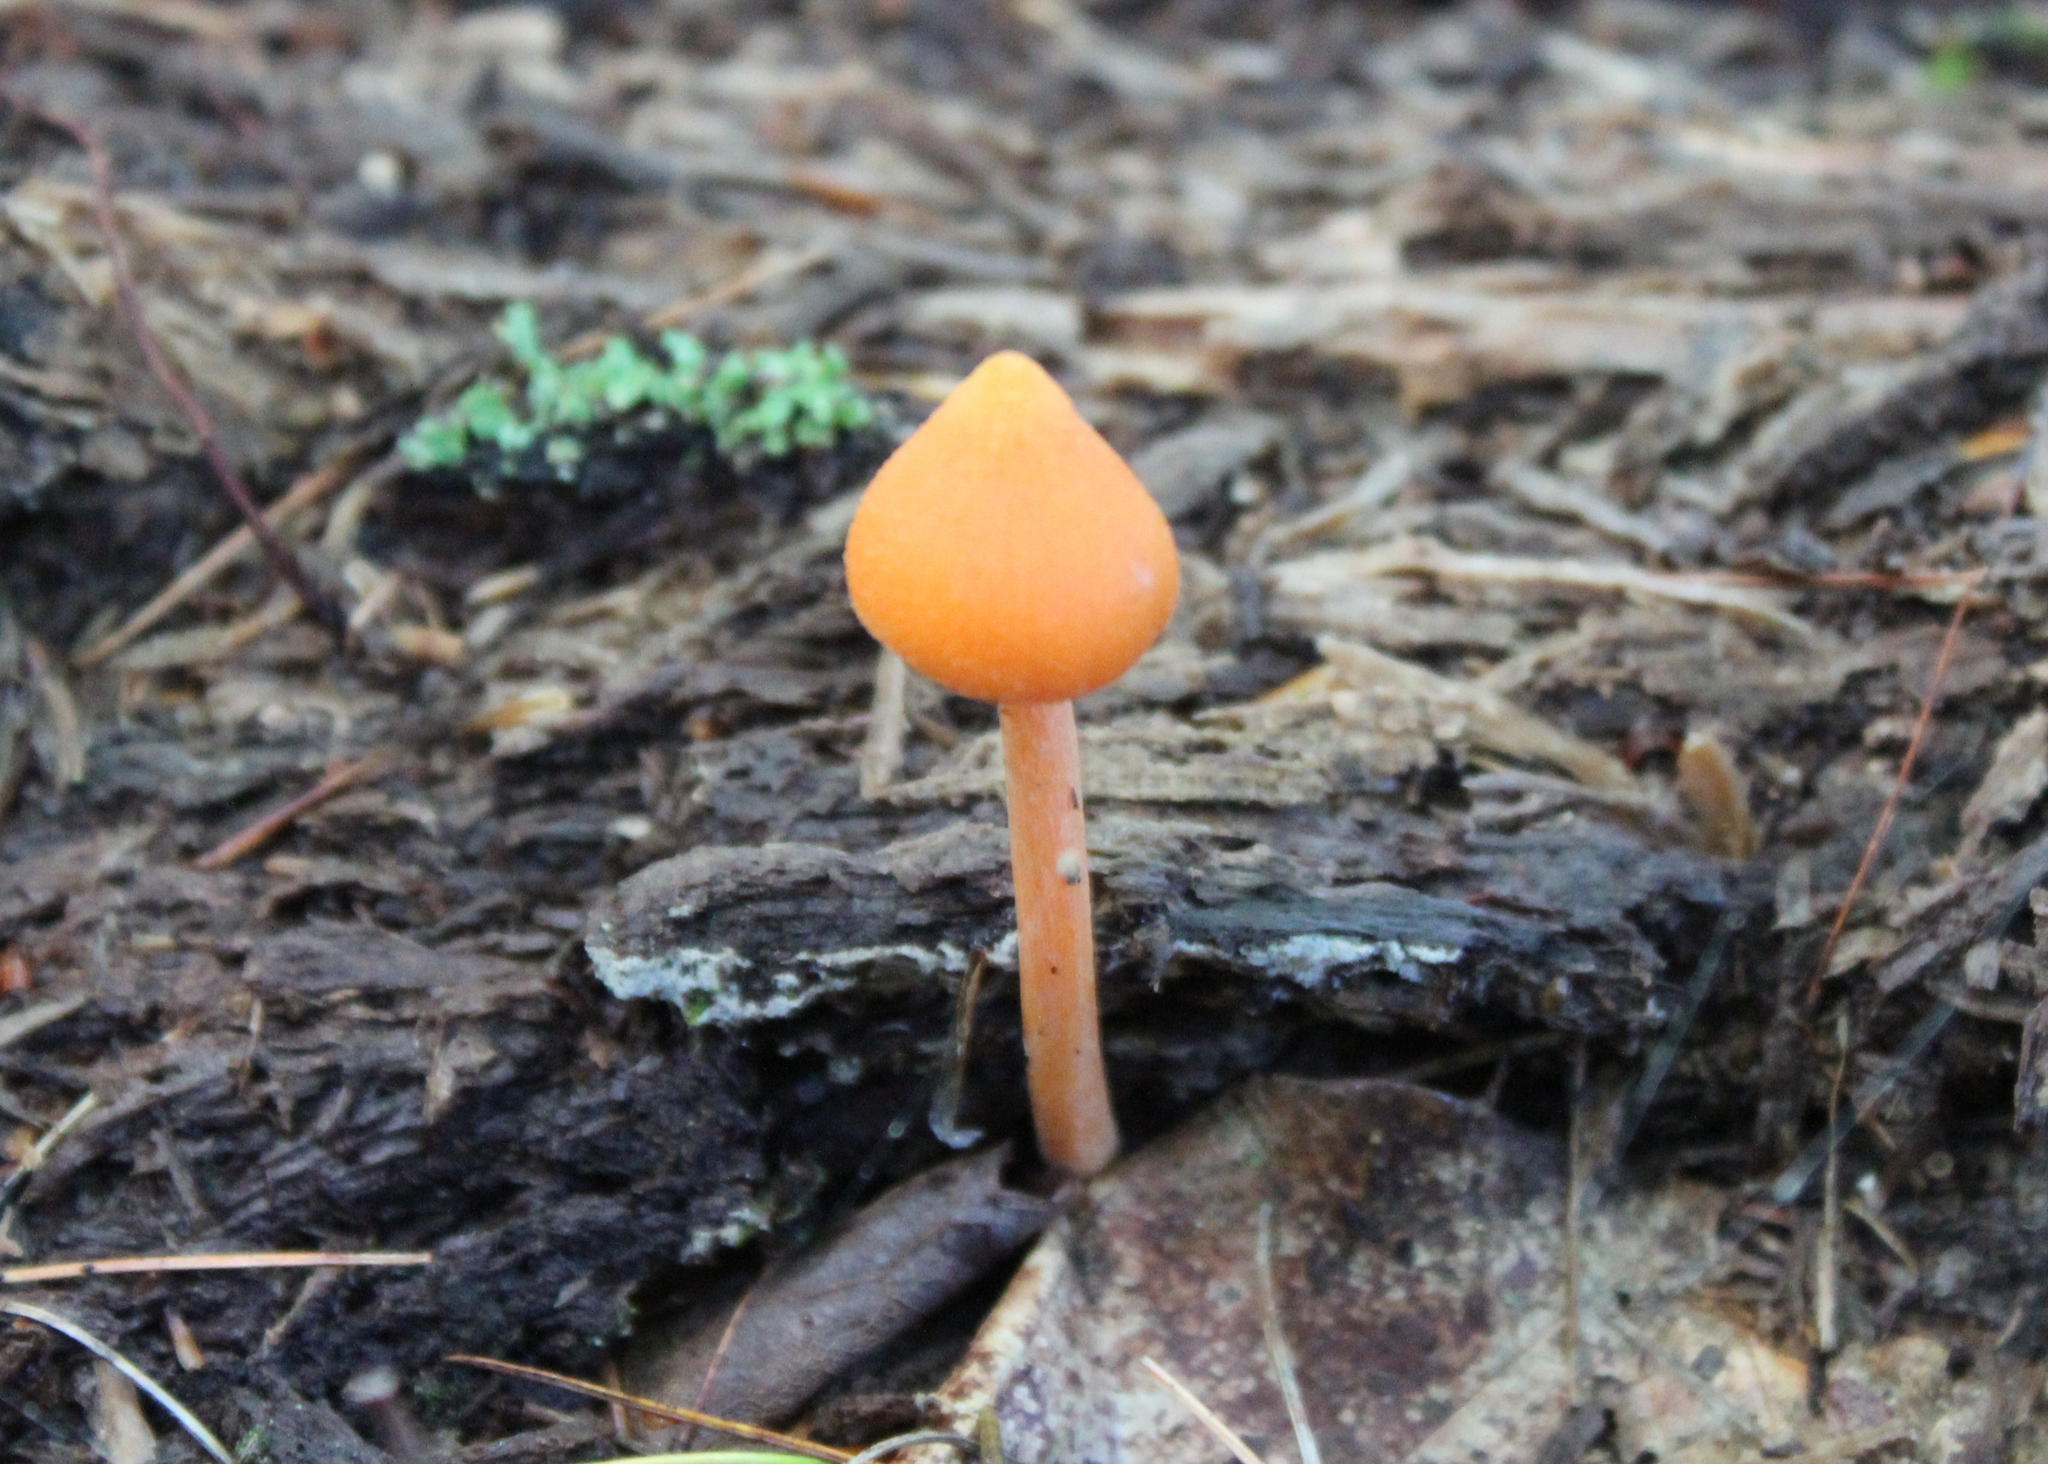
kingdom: Fungi
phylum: Basidiomycota
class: Agaricomycetes
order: Agaricales
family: Entolomataceae
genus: Entoloma
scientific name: Entoloma quadratum
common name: Salmon pinkgill
